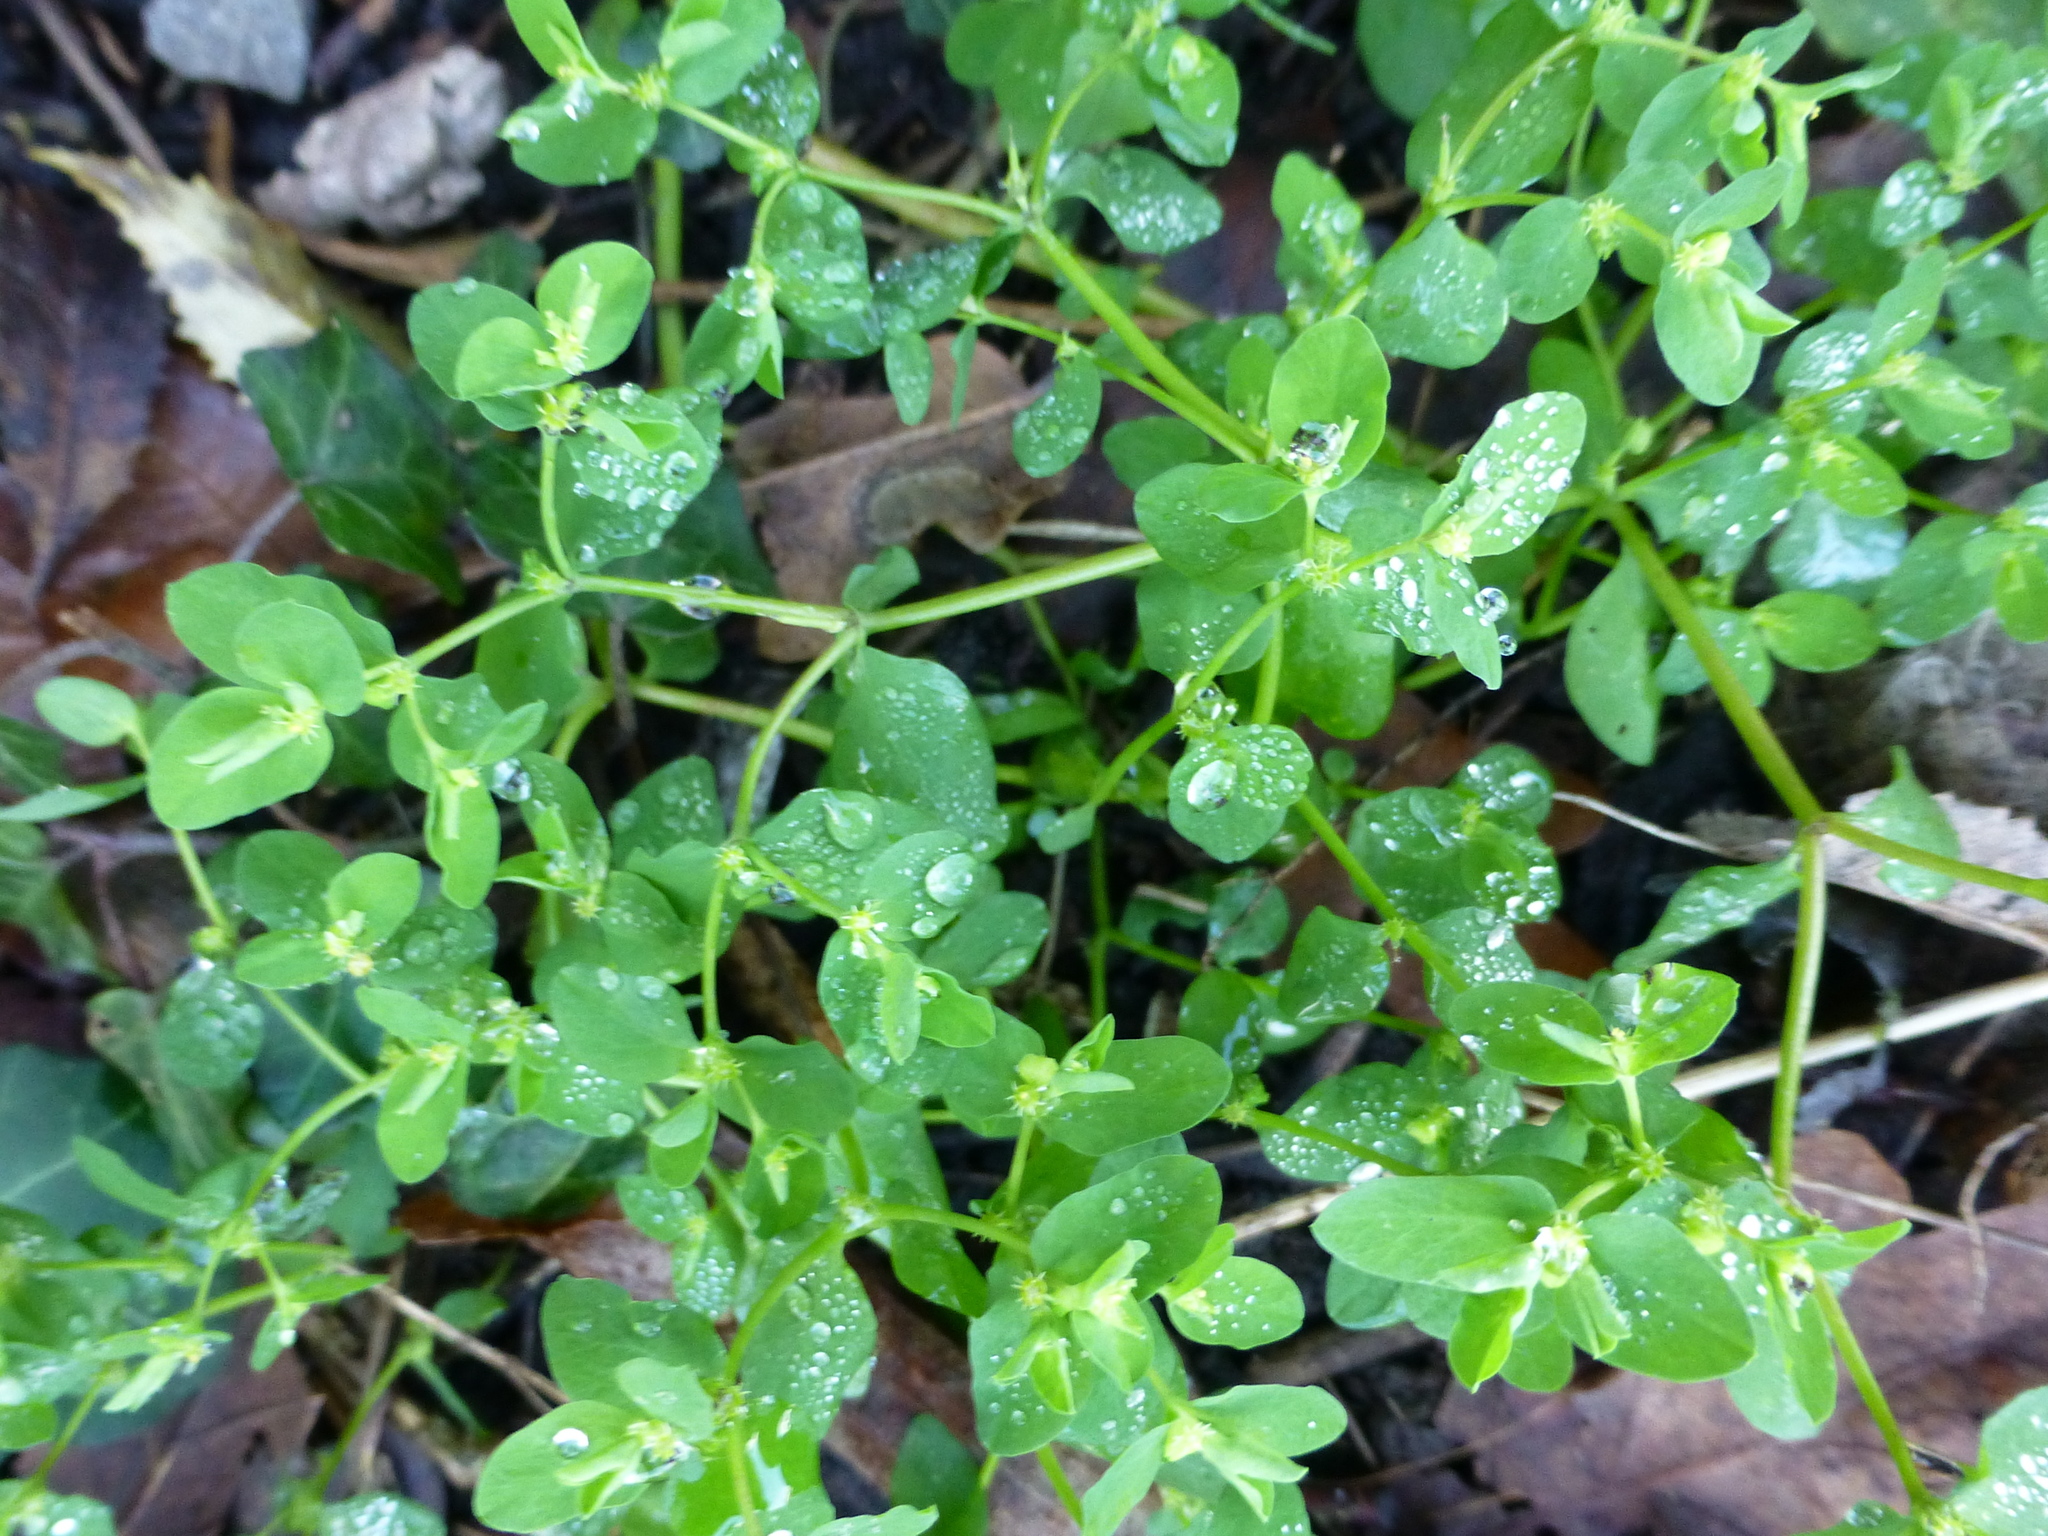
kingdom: Plantae
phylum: Tracheophyta
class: Magnoliopsida
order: Malpighiales
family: Euphorbiaceae
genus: Euphorbia
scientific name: Euphorbia peplus
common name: Petty spurge
